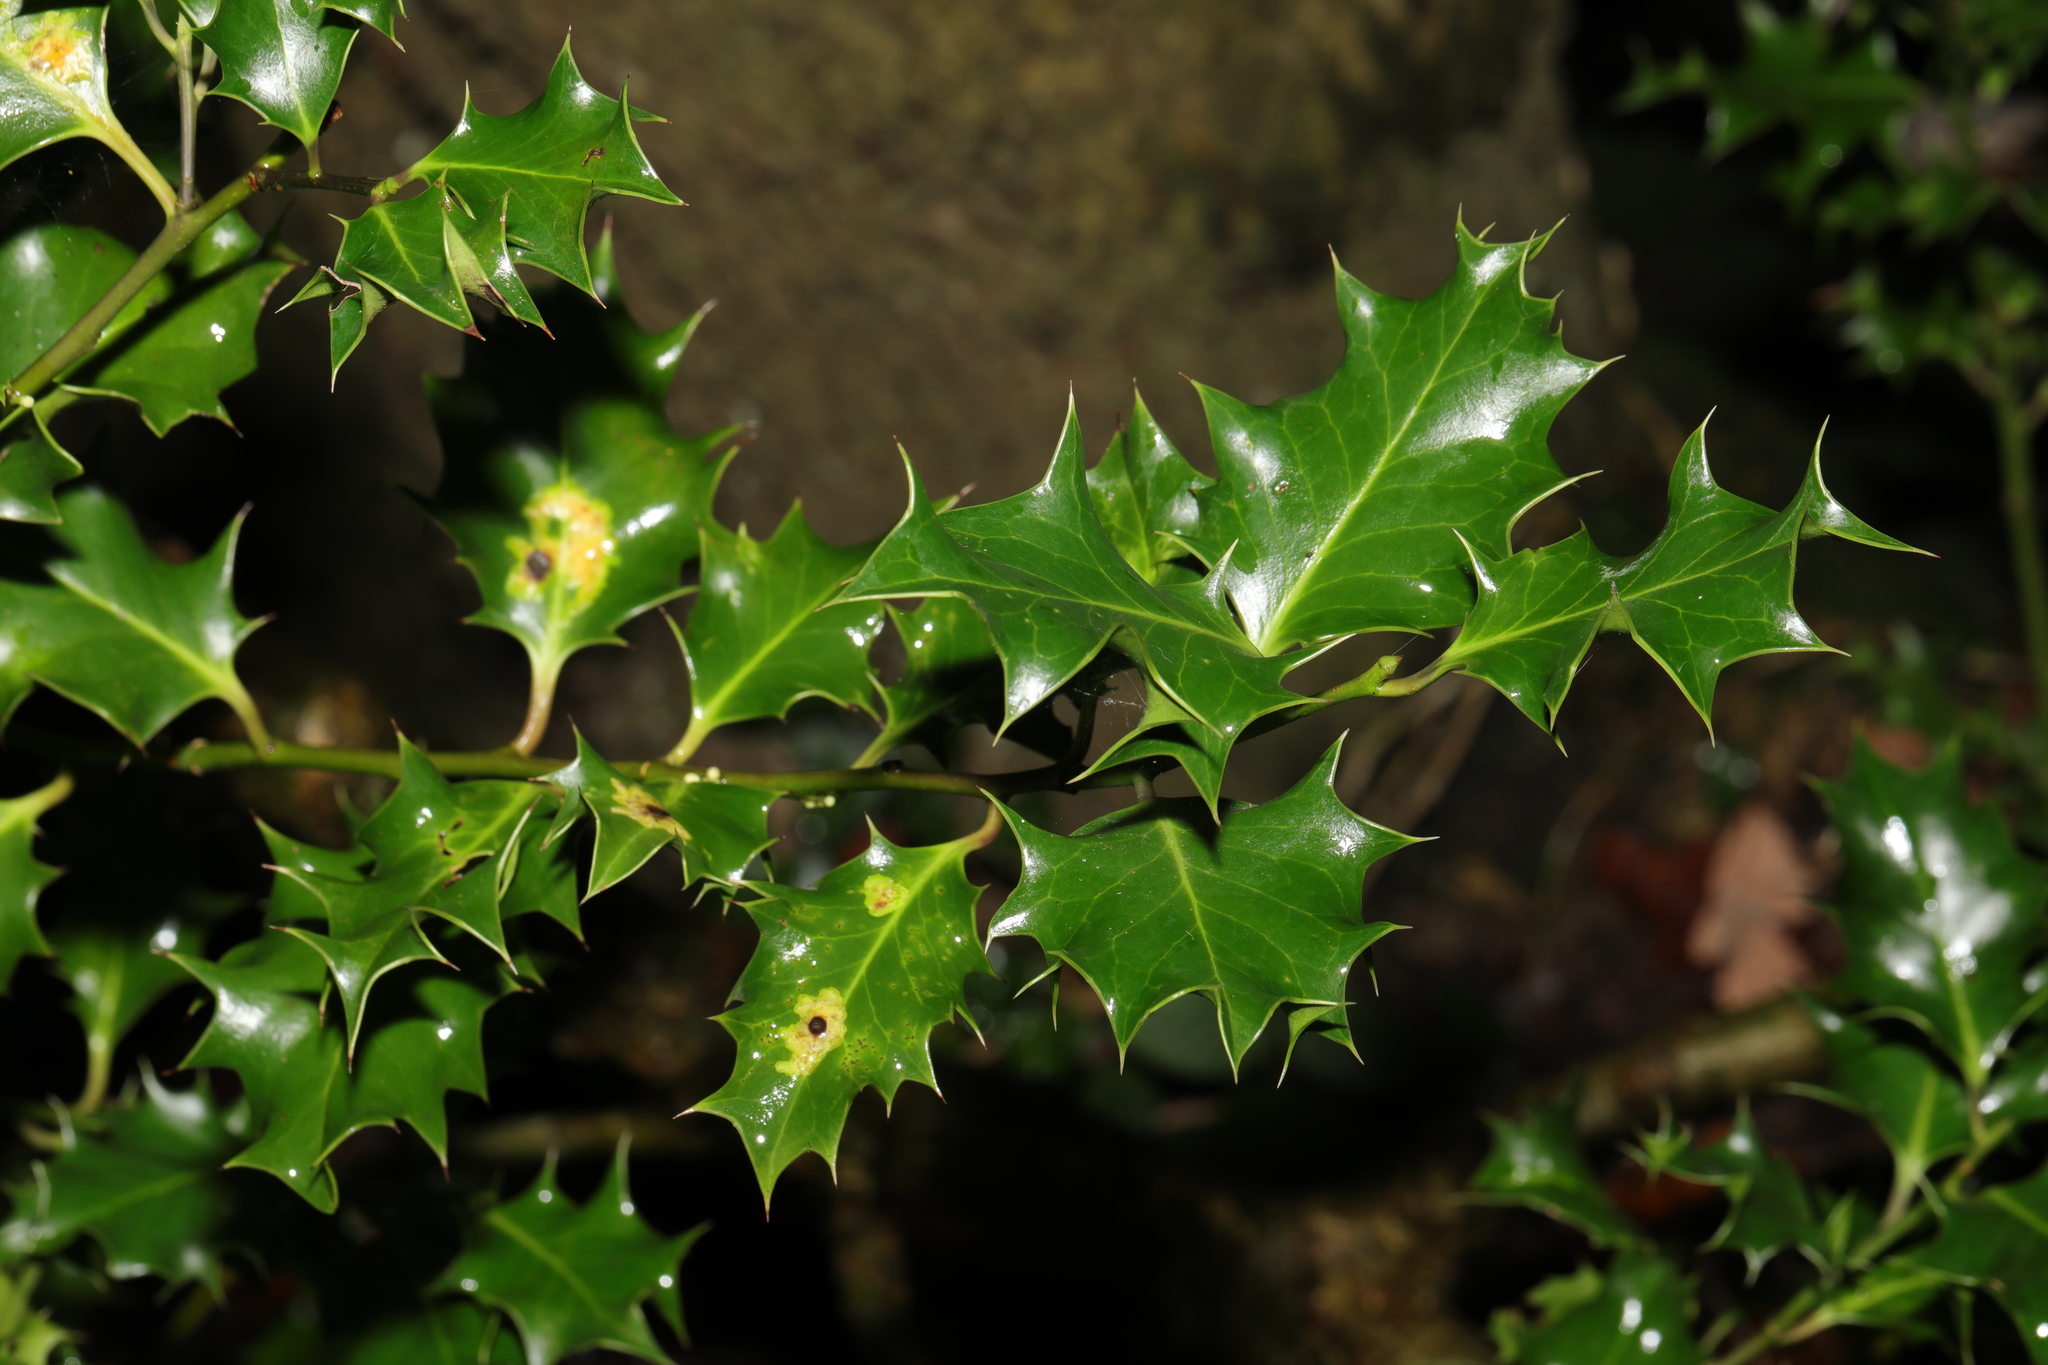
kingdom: Plantae
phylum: Tracheophyta
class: Magnoliopsida
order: Aquifoliales
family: Aquifoliaceae
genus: Ilex
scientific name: Ilex aquifolium
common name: English holly
